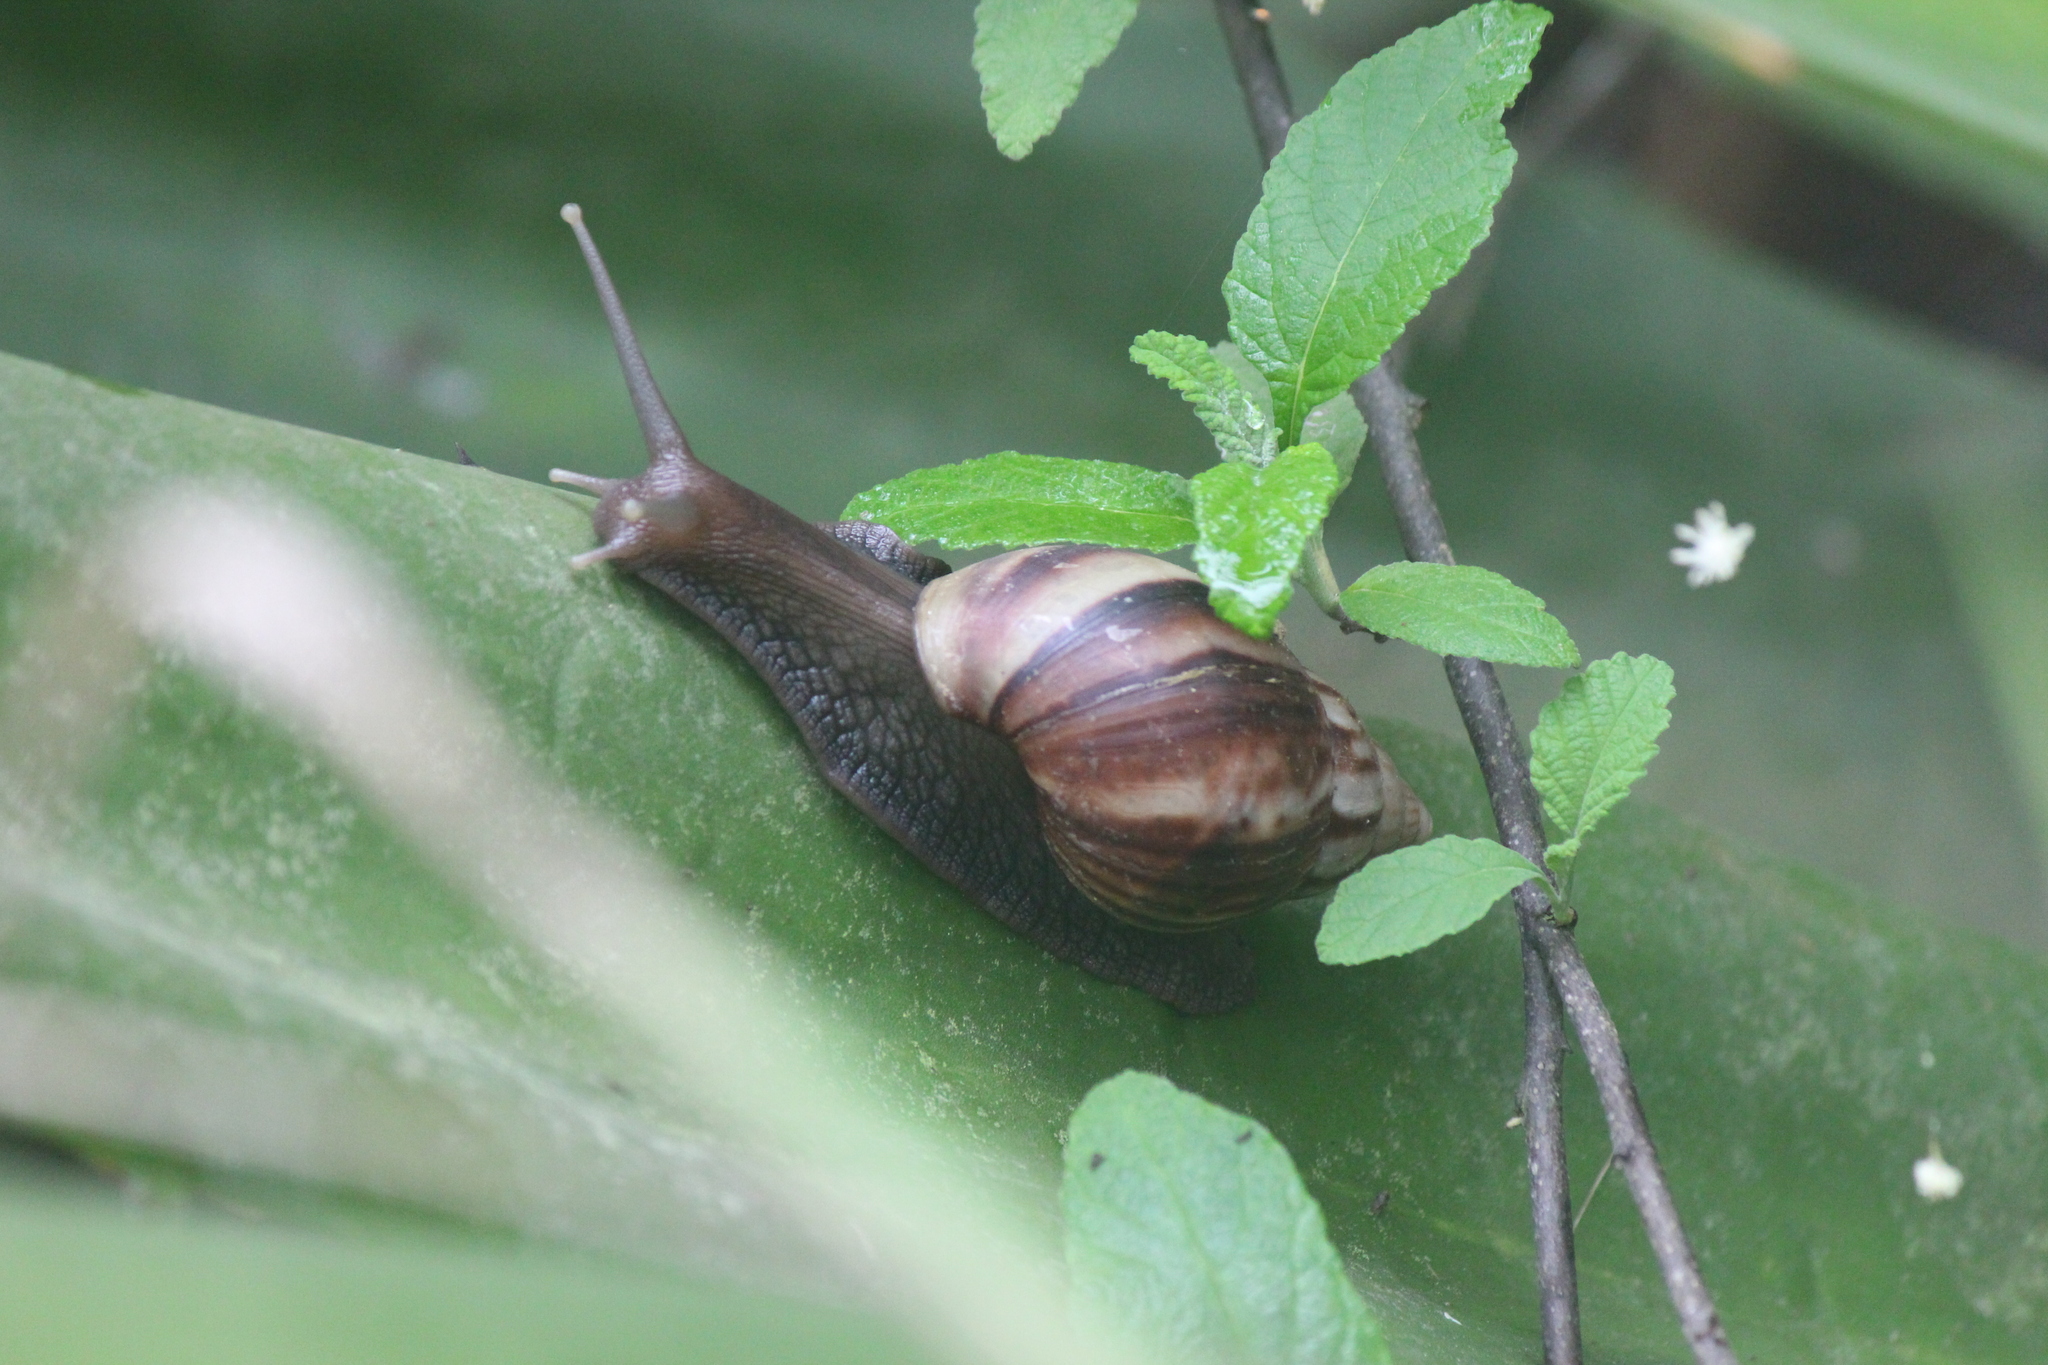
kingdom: Animalia
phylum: Mollusca
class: Gastropoda
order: Stylommatophora
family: Achatinidae
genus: Lissachatina
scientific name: Lissachatina fulica
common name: Giant african snail
